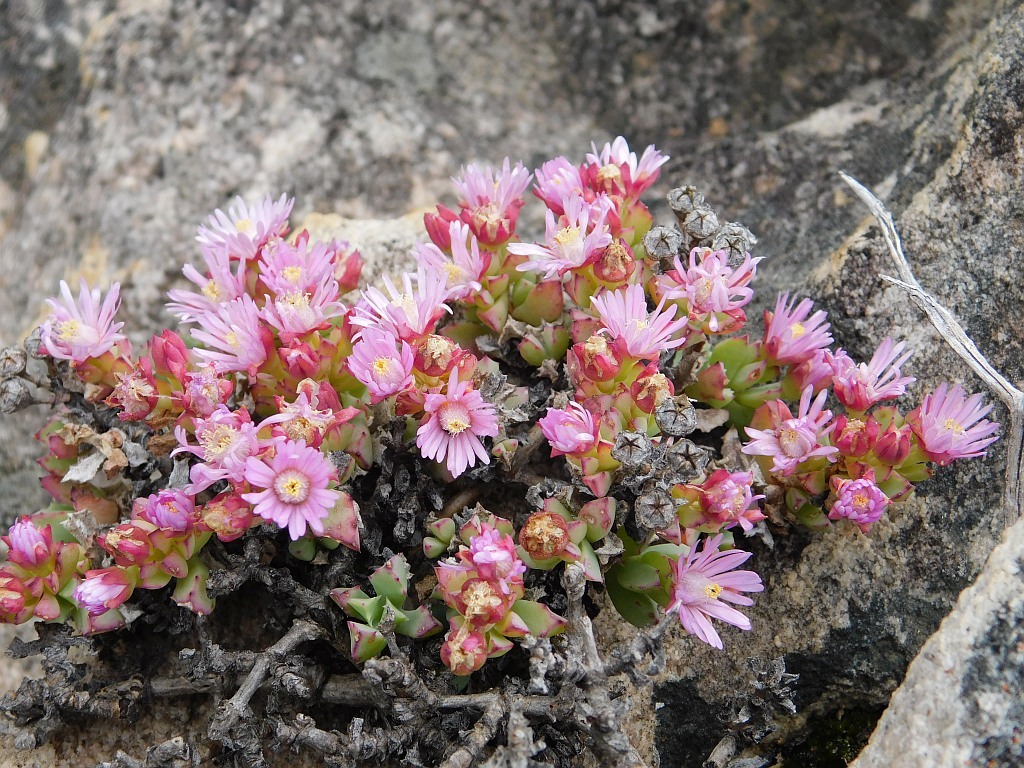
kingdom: Plantae
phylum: Tracheophyta
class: Magnoliopsida
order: Caryophyllales
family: Aizoaceae
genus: Oscularia
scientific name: Oscularia deltoides
